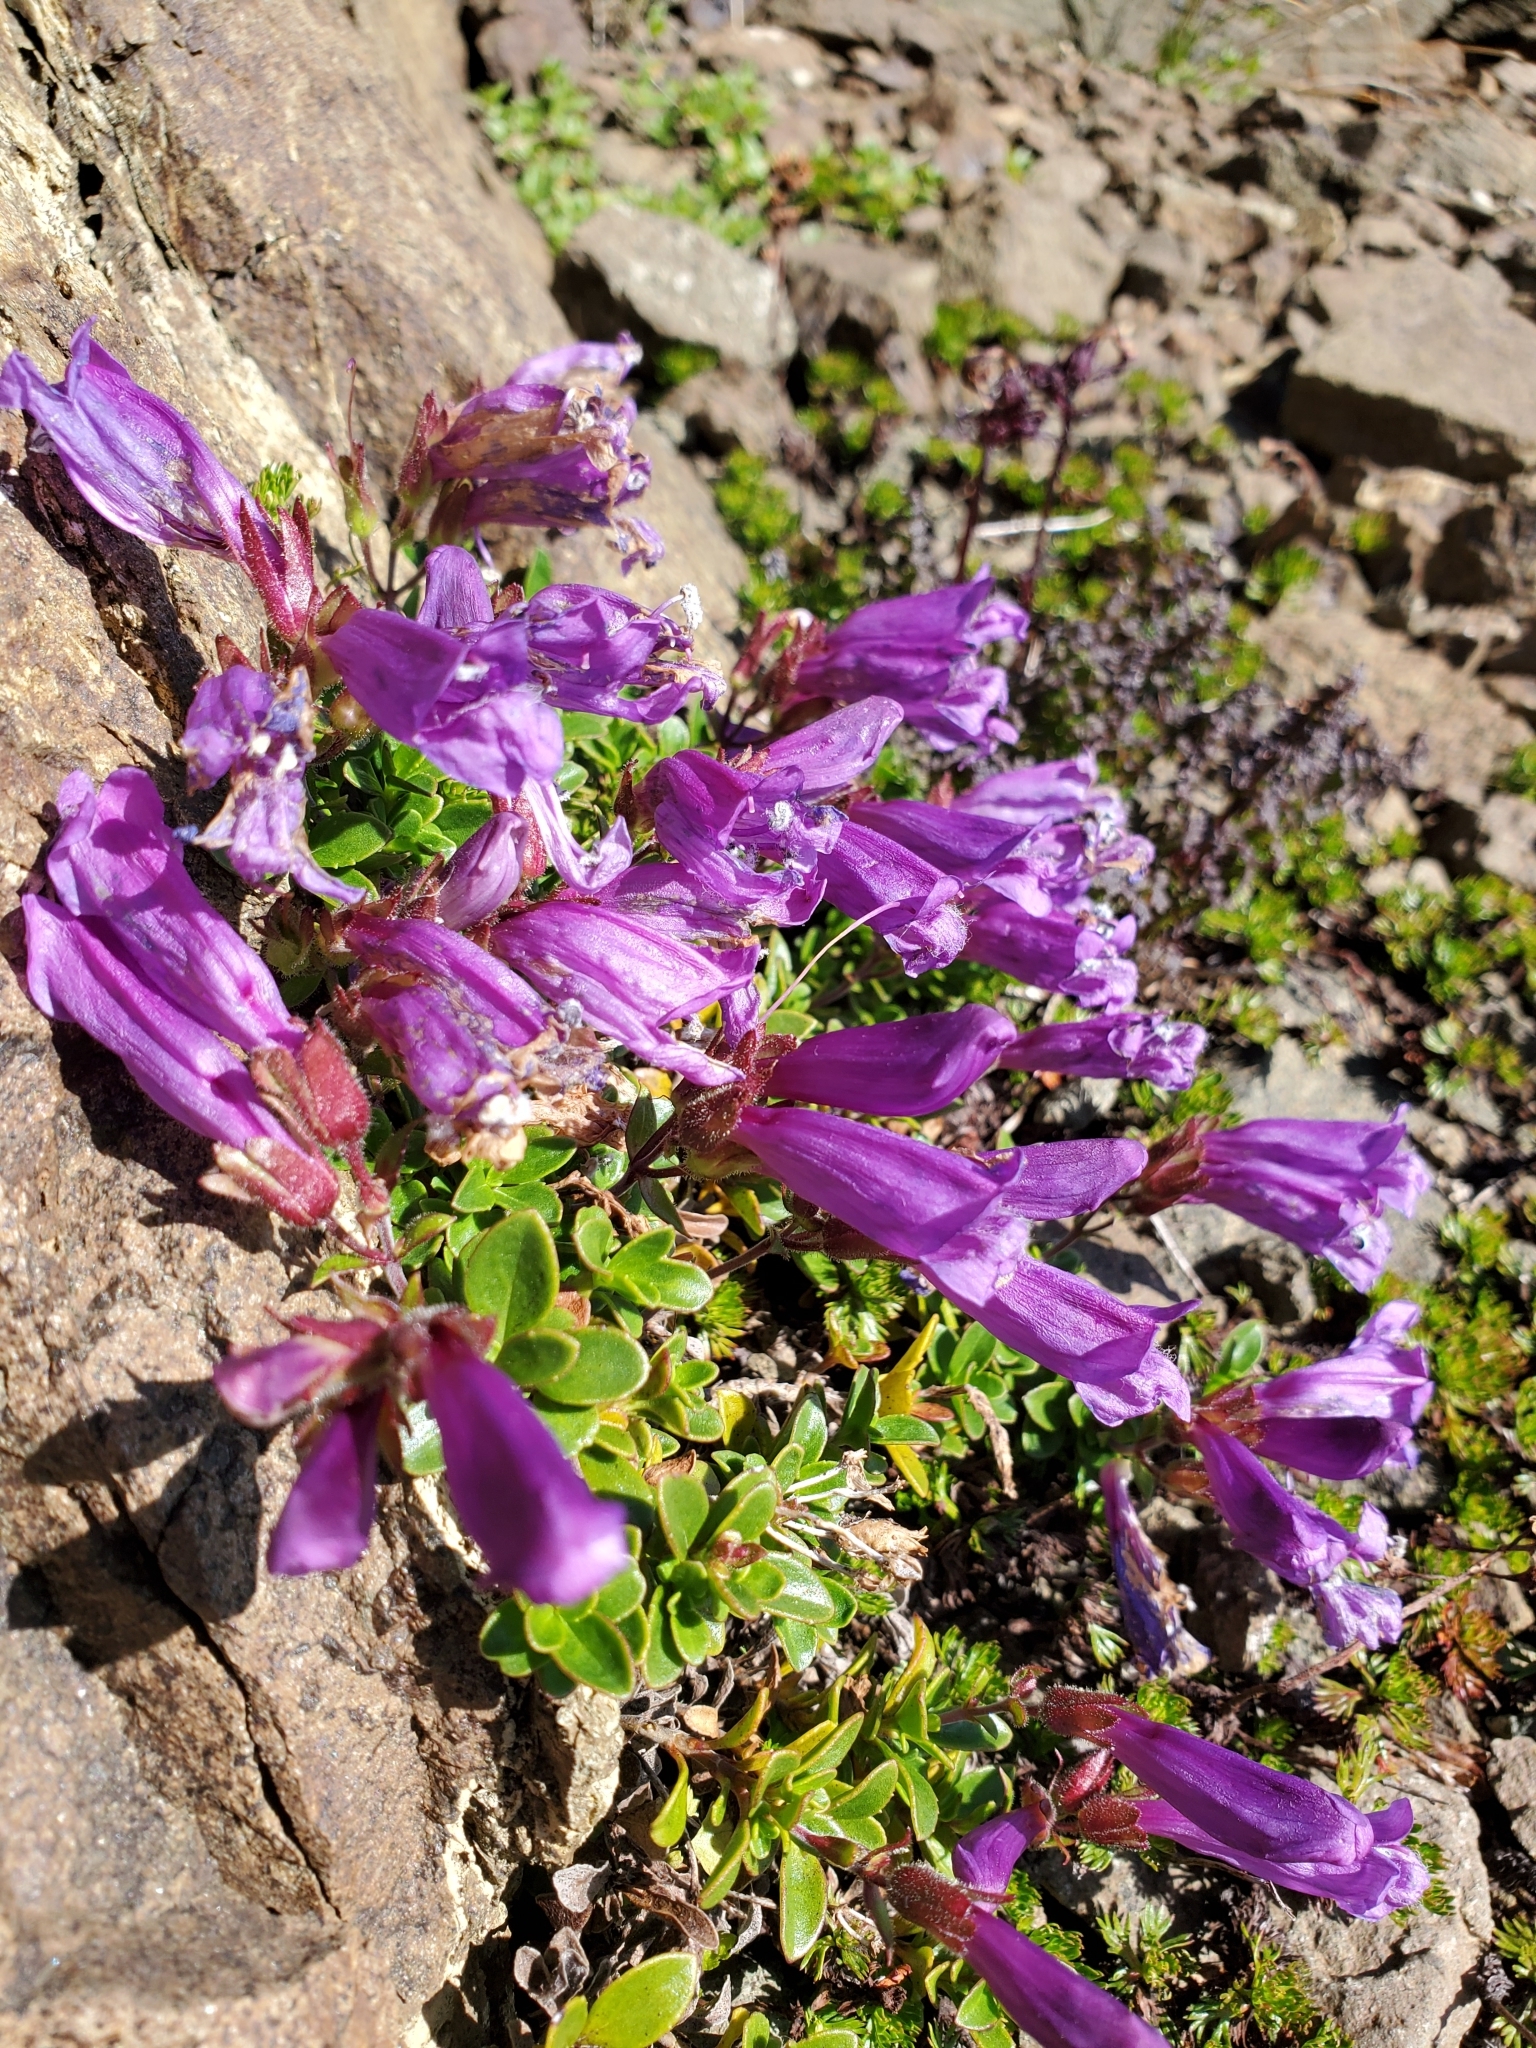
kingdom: Plantae
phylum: Tracheophyta
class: Magnoliopsida
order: Lamiales
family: Plantaginaceae
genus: Penstemon
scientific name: Penstemon davidsonii
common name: Davidson's penstemon
